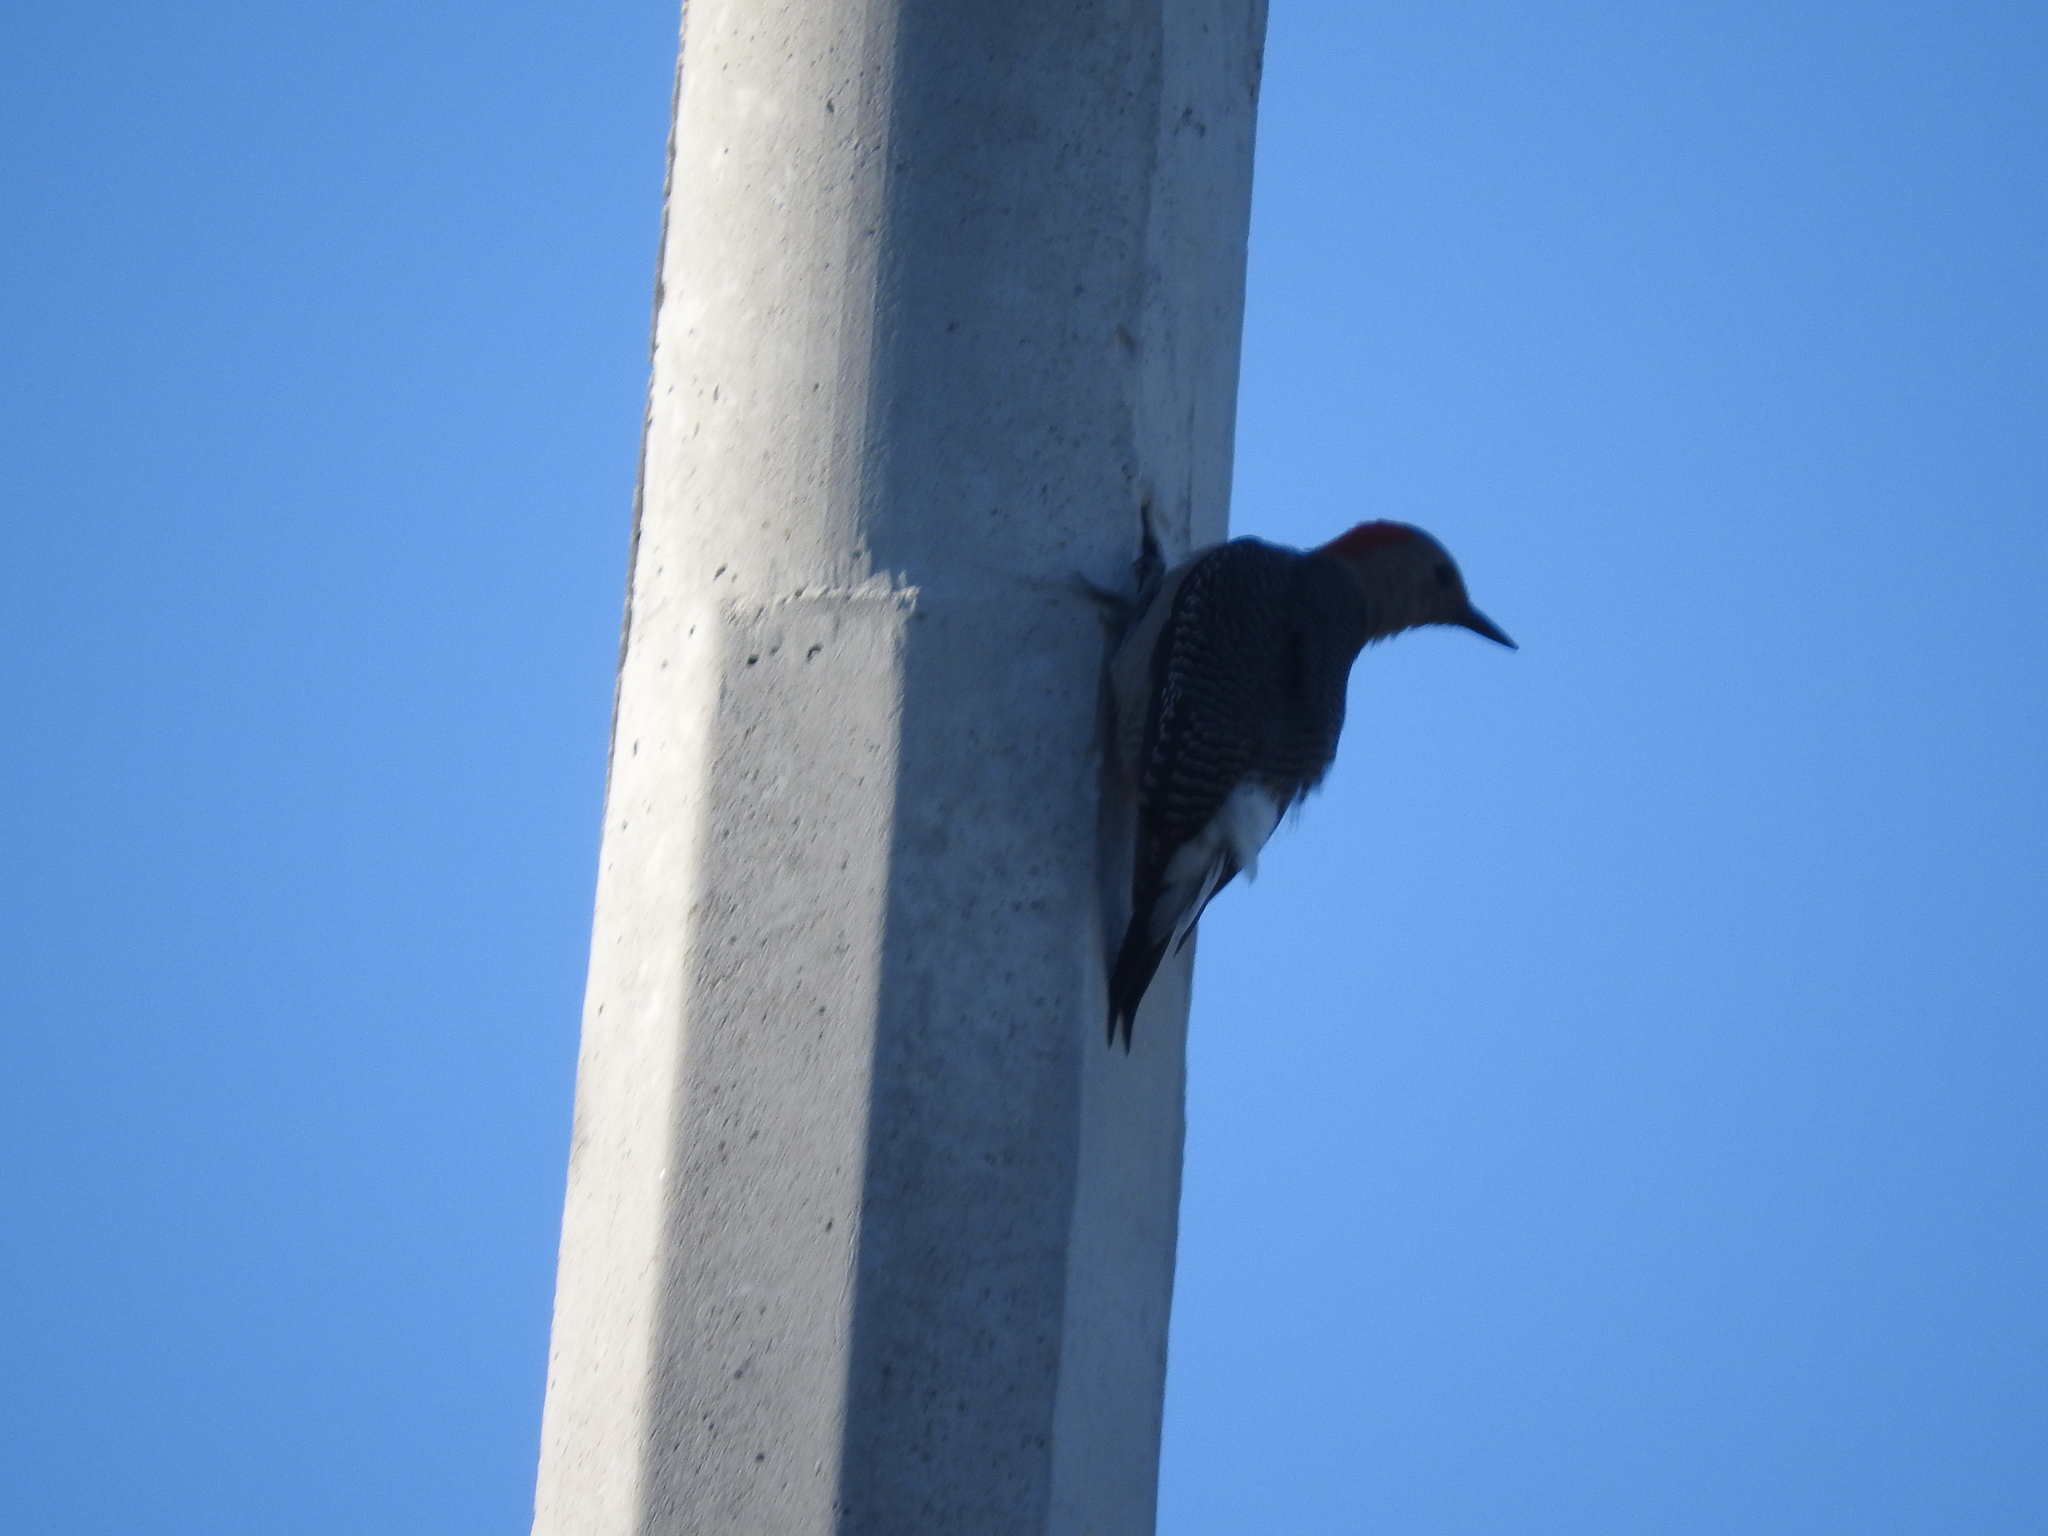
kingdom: Animalia
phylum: Chordata
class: Aves
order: Piciformes
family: Picidae
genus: Melanerpes
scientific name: Melanerpes aurifrons
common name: Golden-fronted woodpecker
